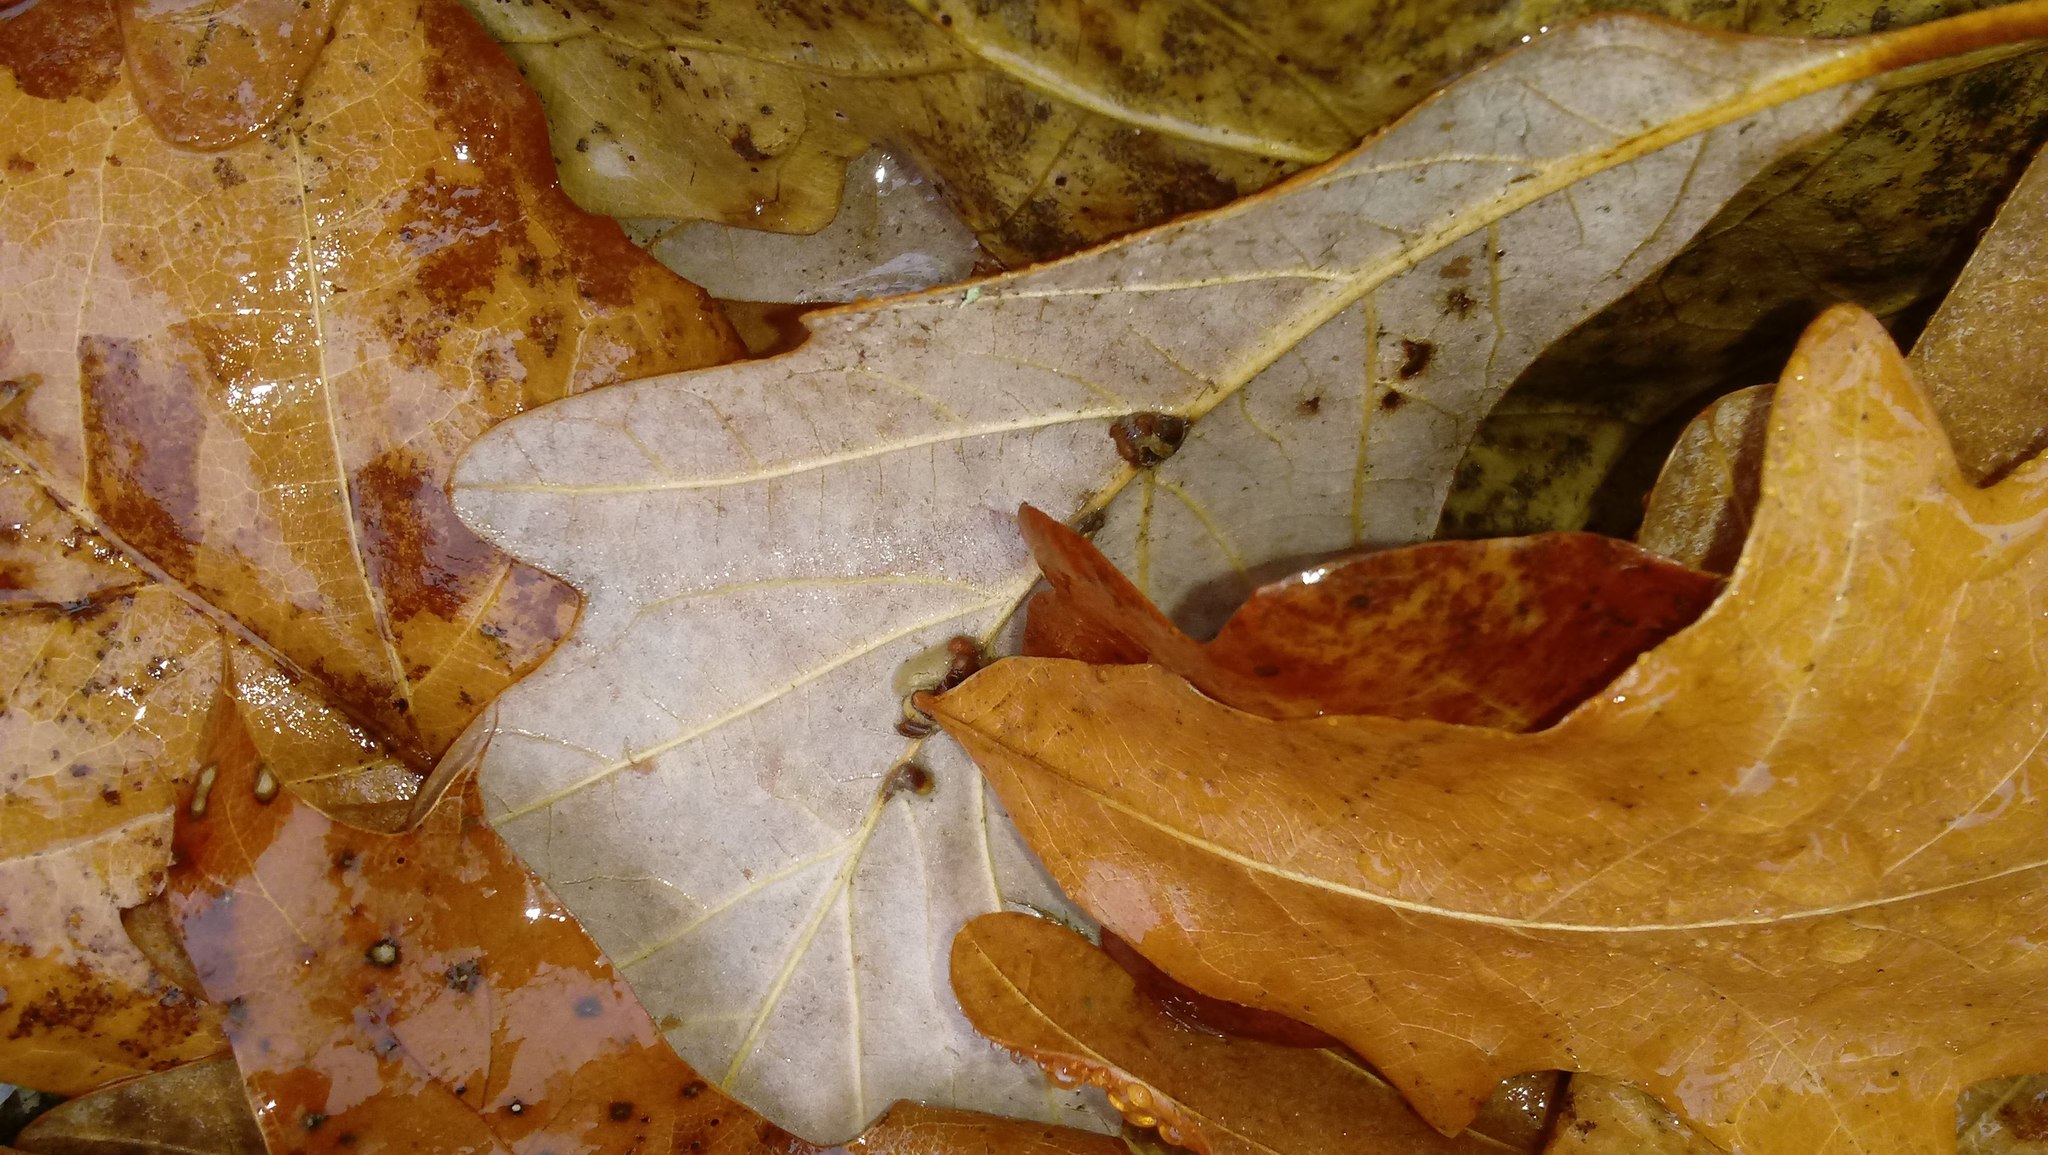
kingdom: Animalia
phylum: Arthropoda
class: Insecta
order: Hymenoptera
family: Cynipidae
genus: Andricus
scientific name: Andricus Druon ignotum
